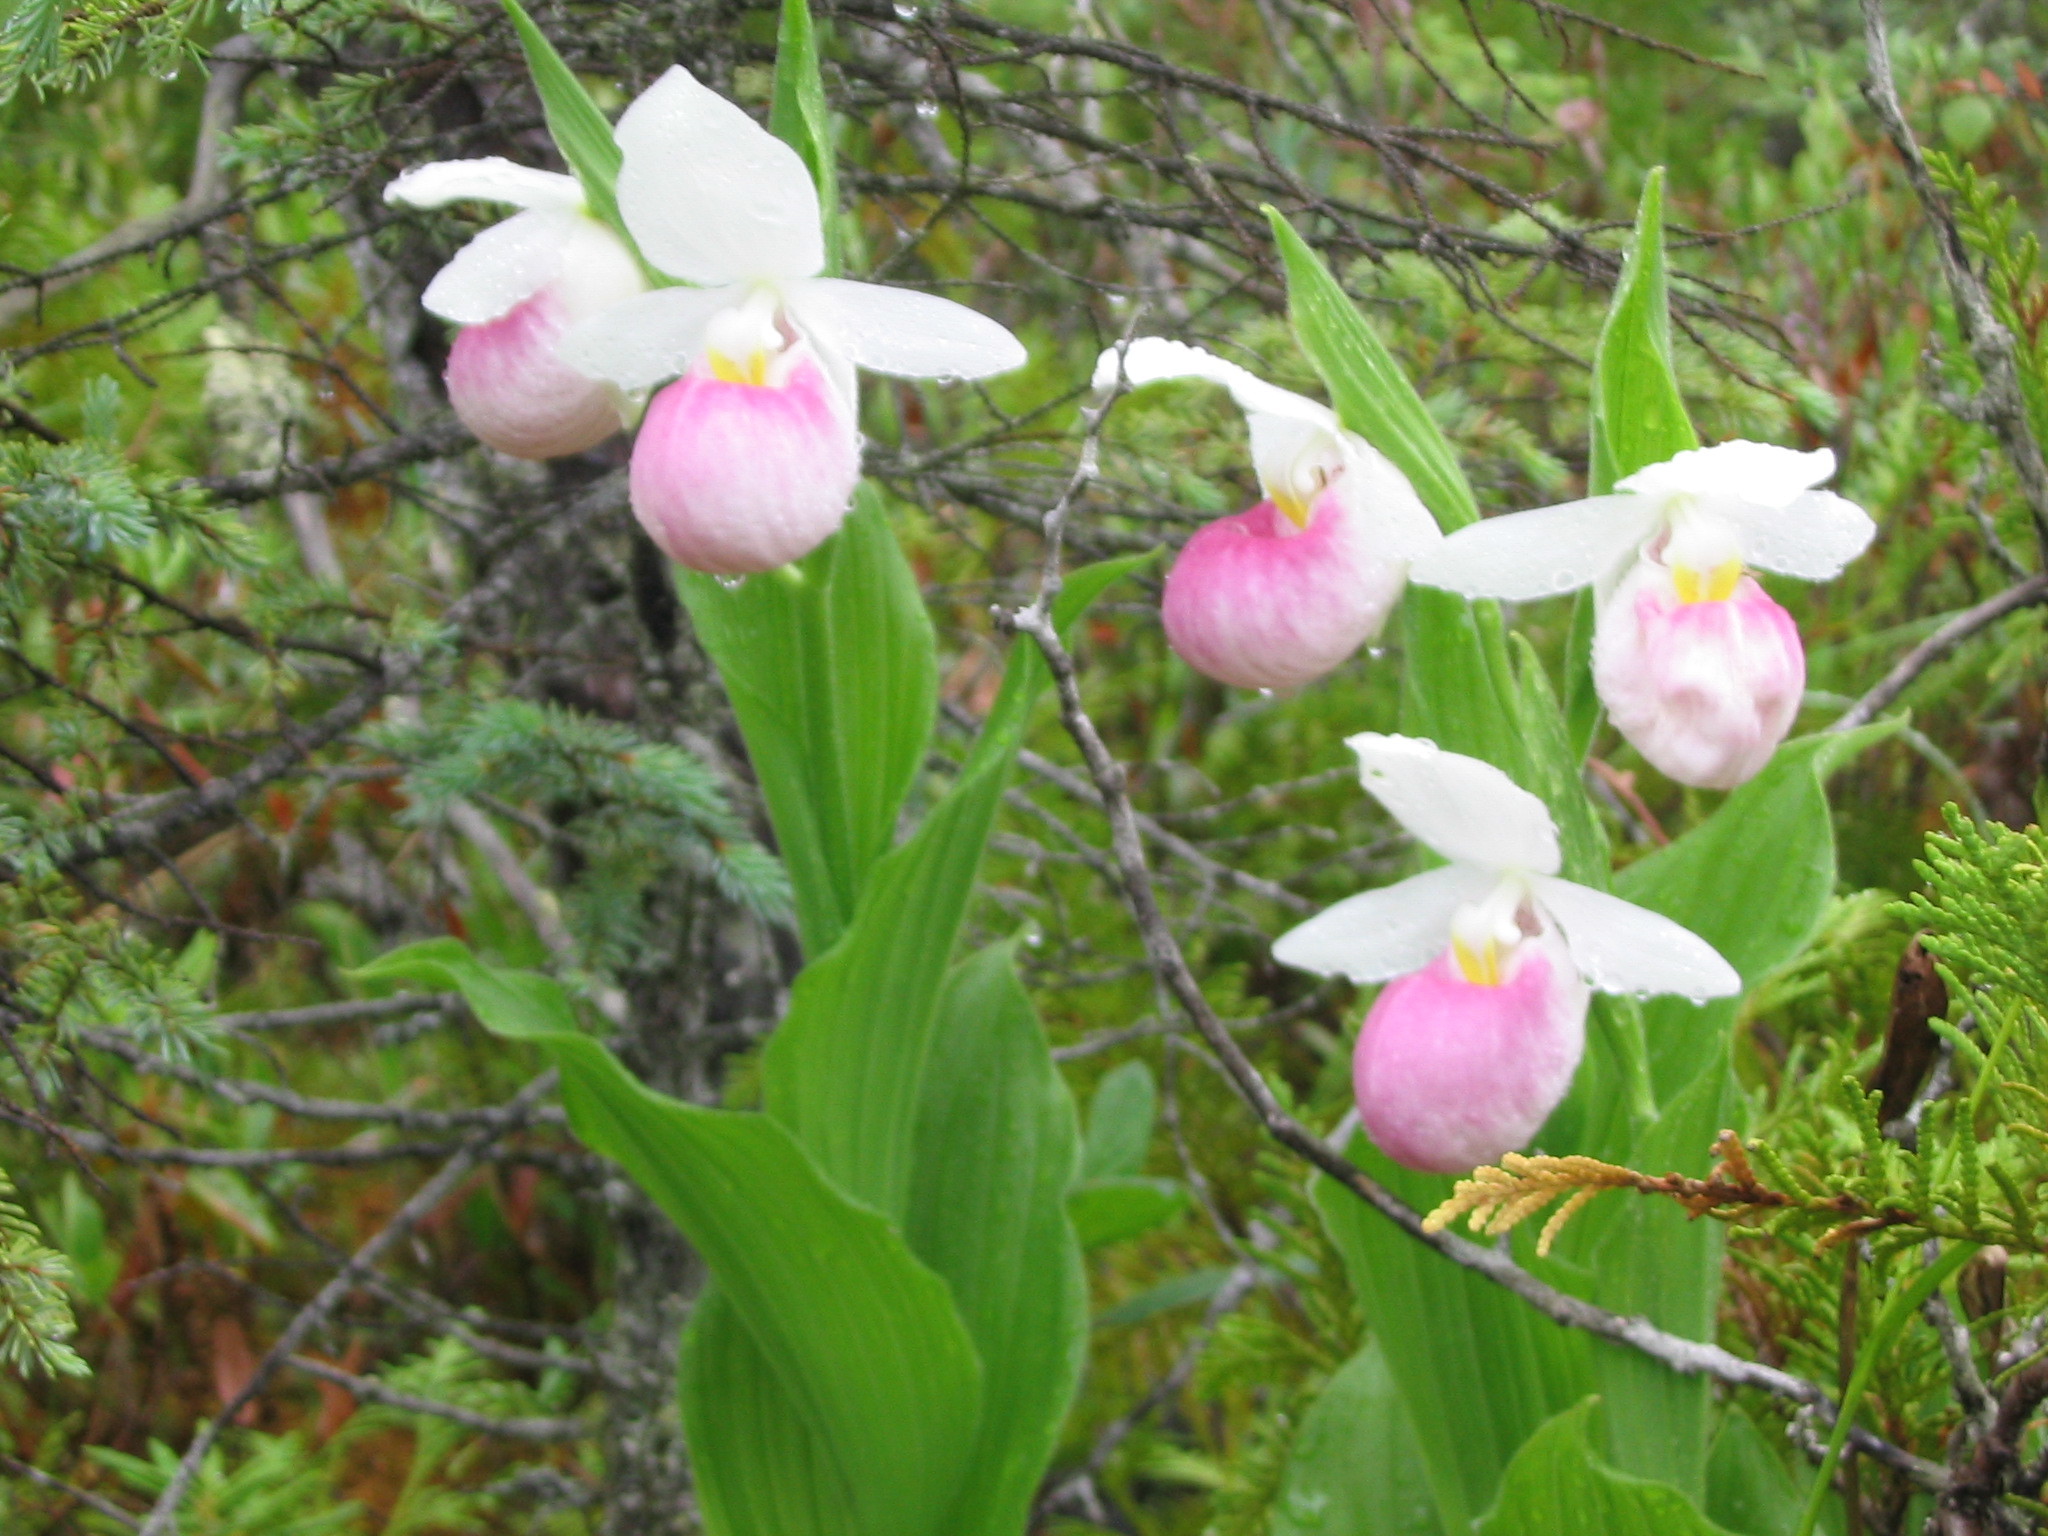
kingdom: Plantae
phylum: Tracheophyta
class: Liliopsida
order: Asparagales
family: Orchidaceae
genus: Cypripedium
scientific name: Cypripedium reginae
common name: Queen lady's-slipper
